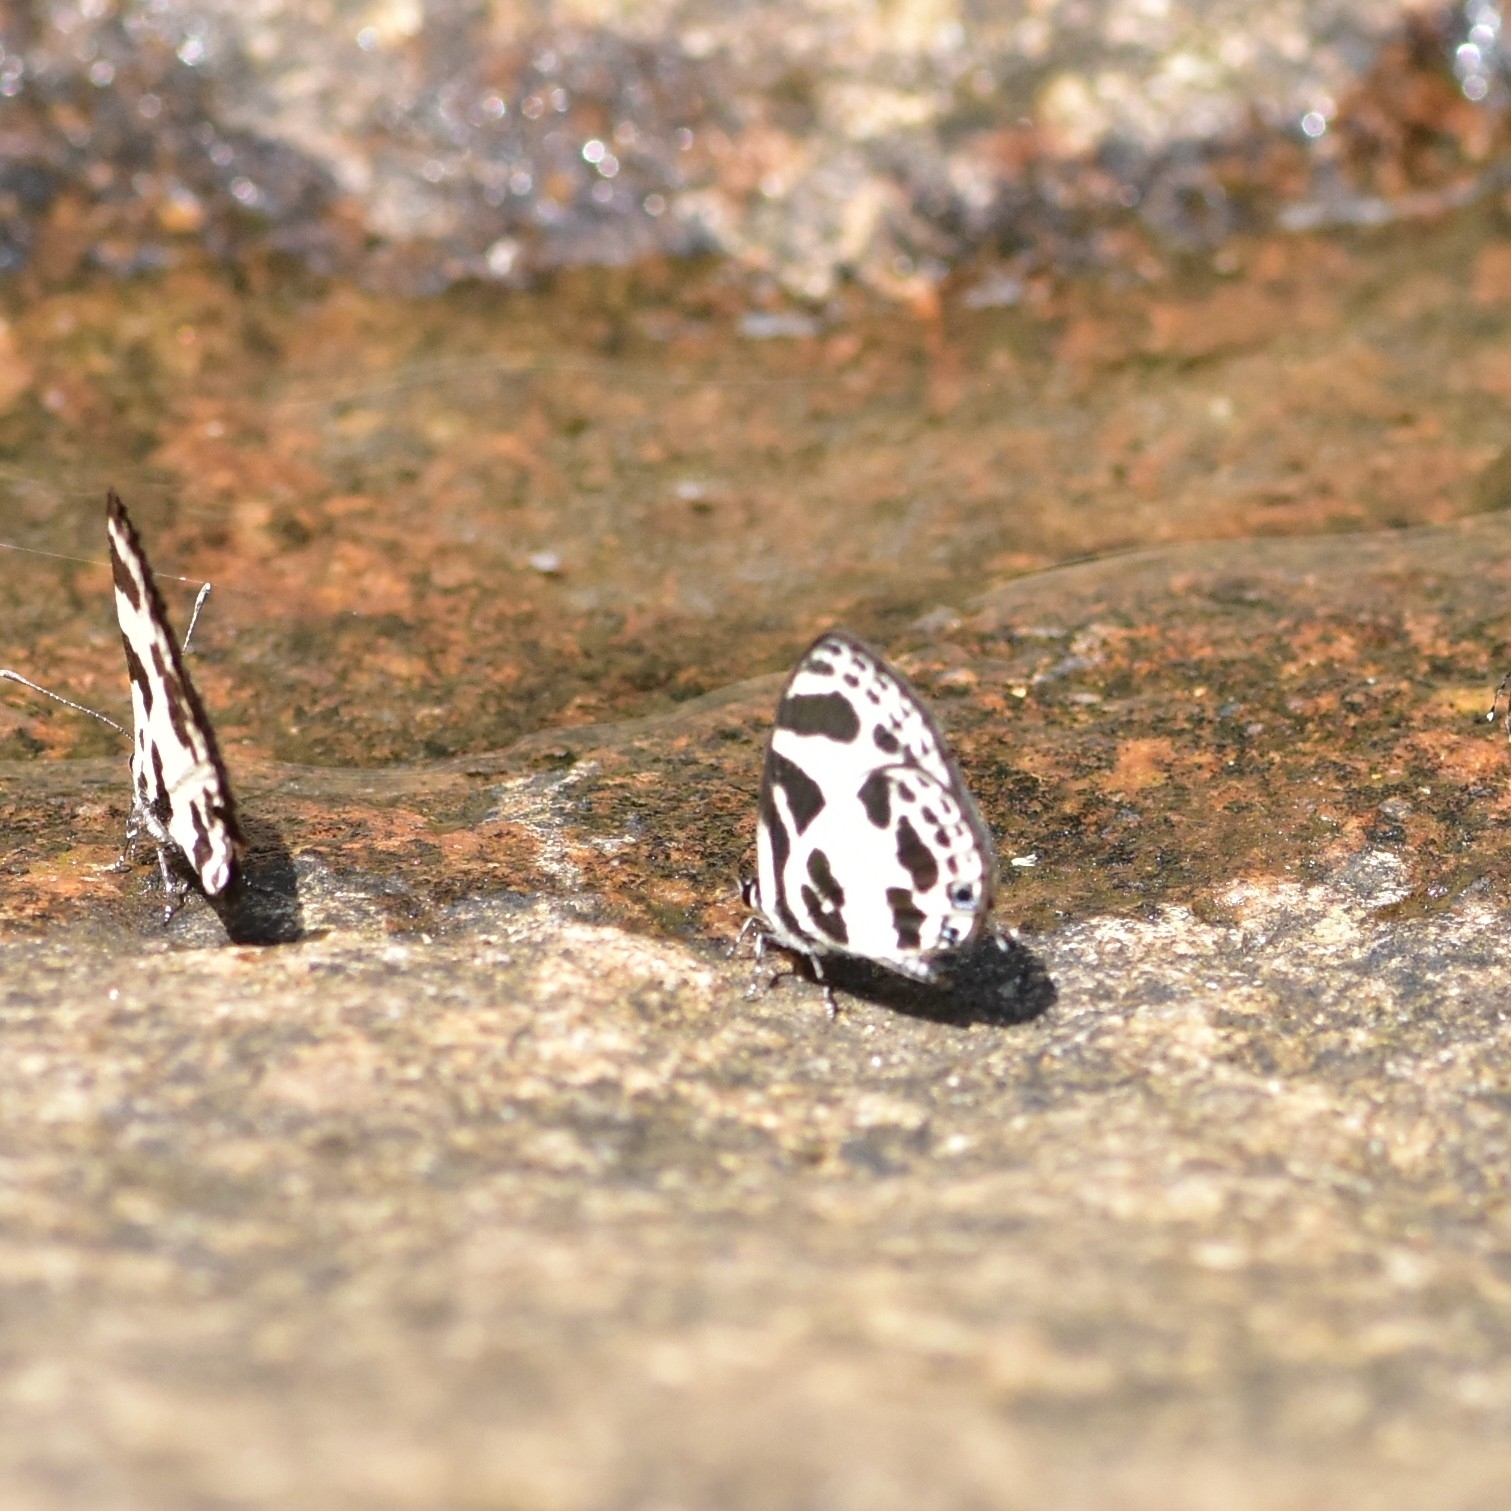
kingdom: Animalia
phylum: Arthropoda
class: Insecta
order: Lepidoptera
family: Lycaenidae
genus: Discolampa
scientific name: Discolampa ethion
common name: Banded blue pierrot
